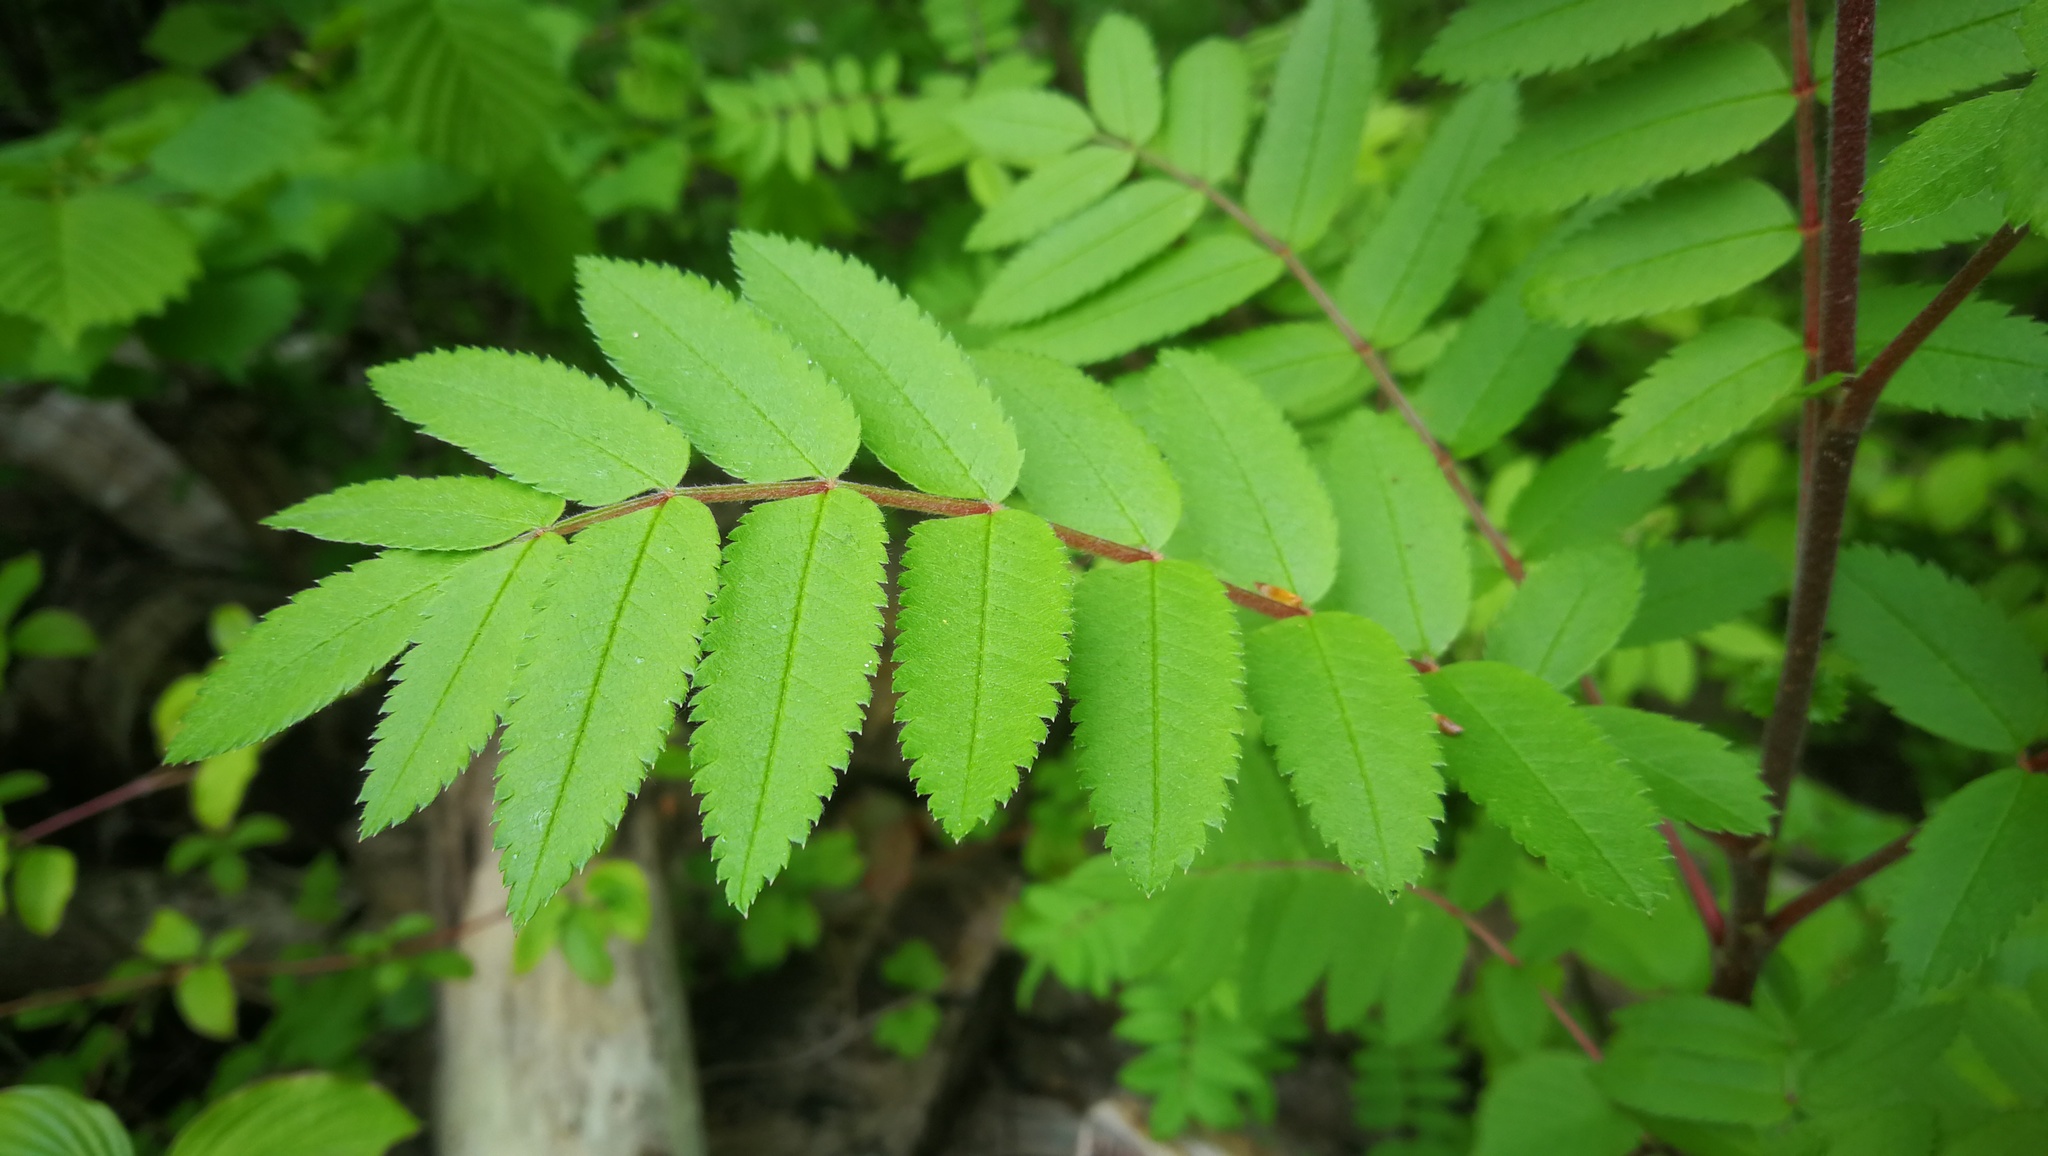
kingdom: Plantae
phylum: Tracheophyta
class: Magnoliopsida
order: Rosales
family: Rosaceae
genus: Sorbus
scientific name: Sorbus aucuparia
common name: Rowan
